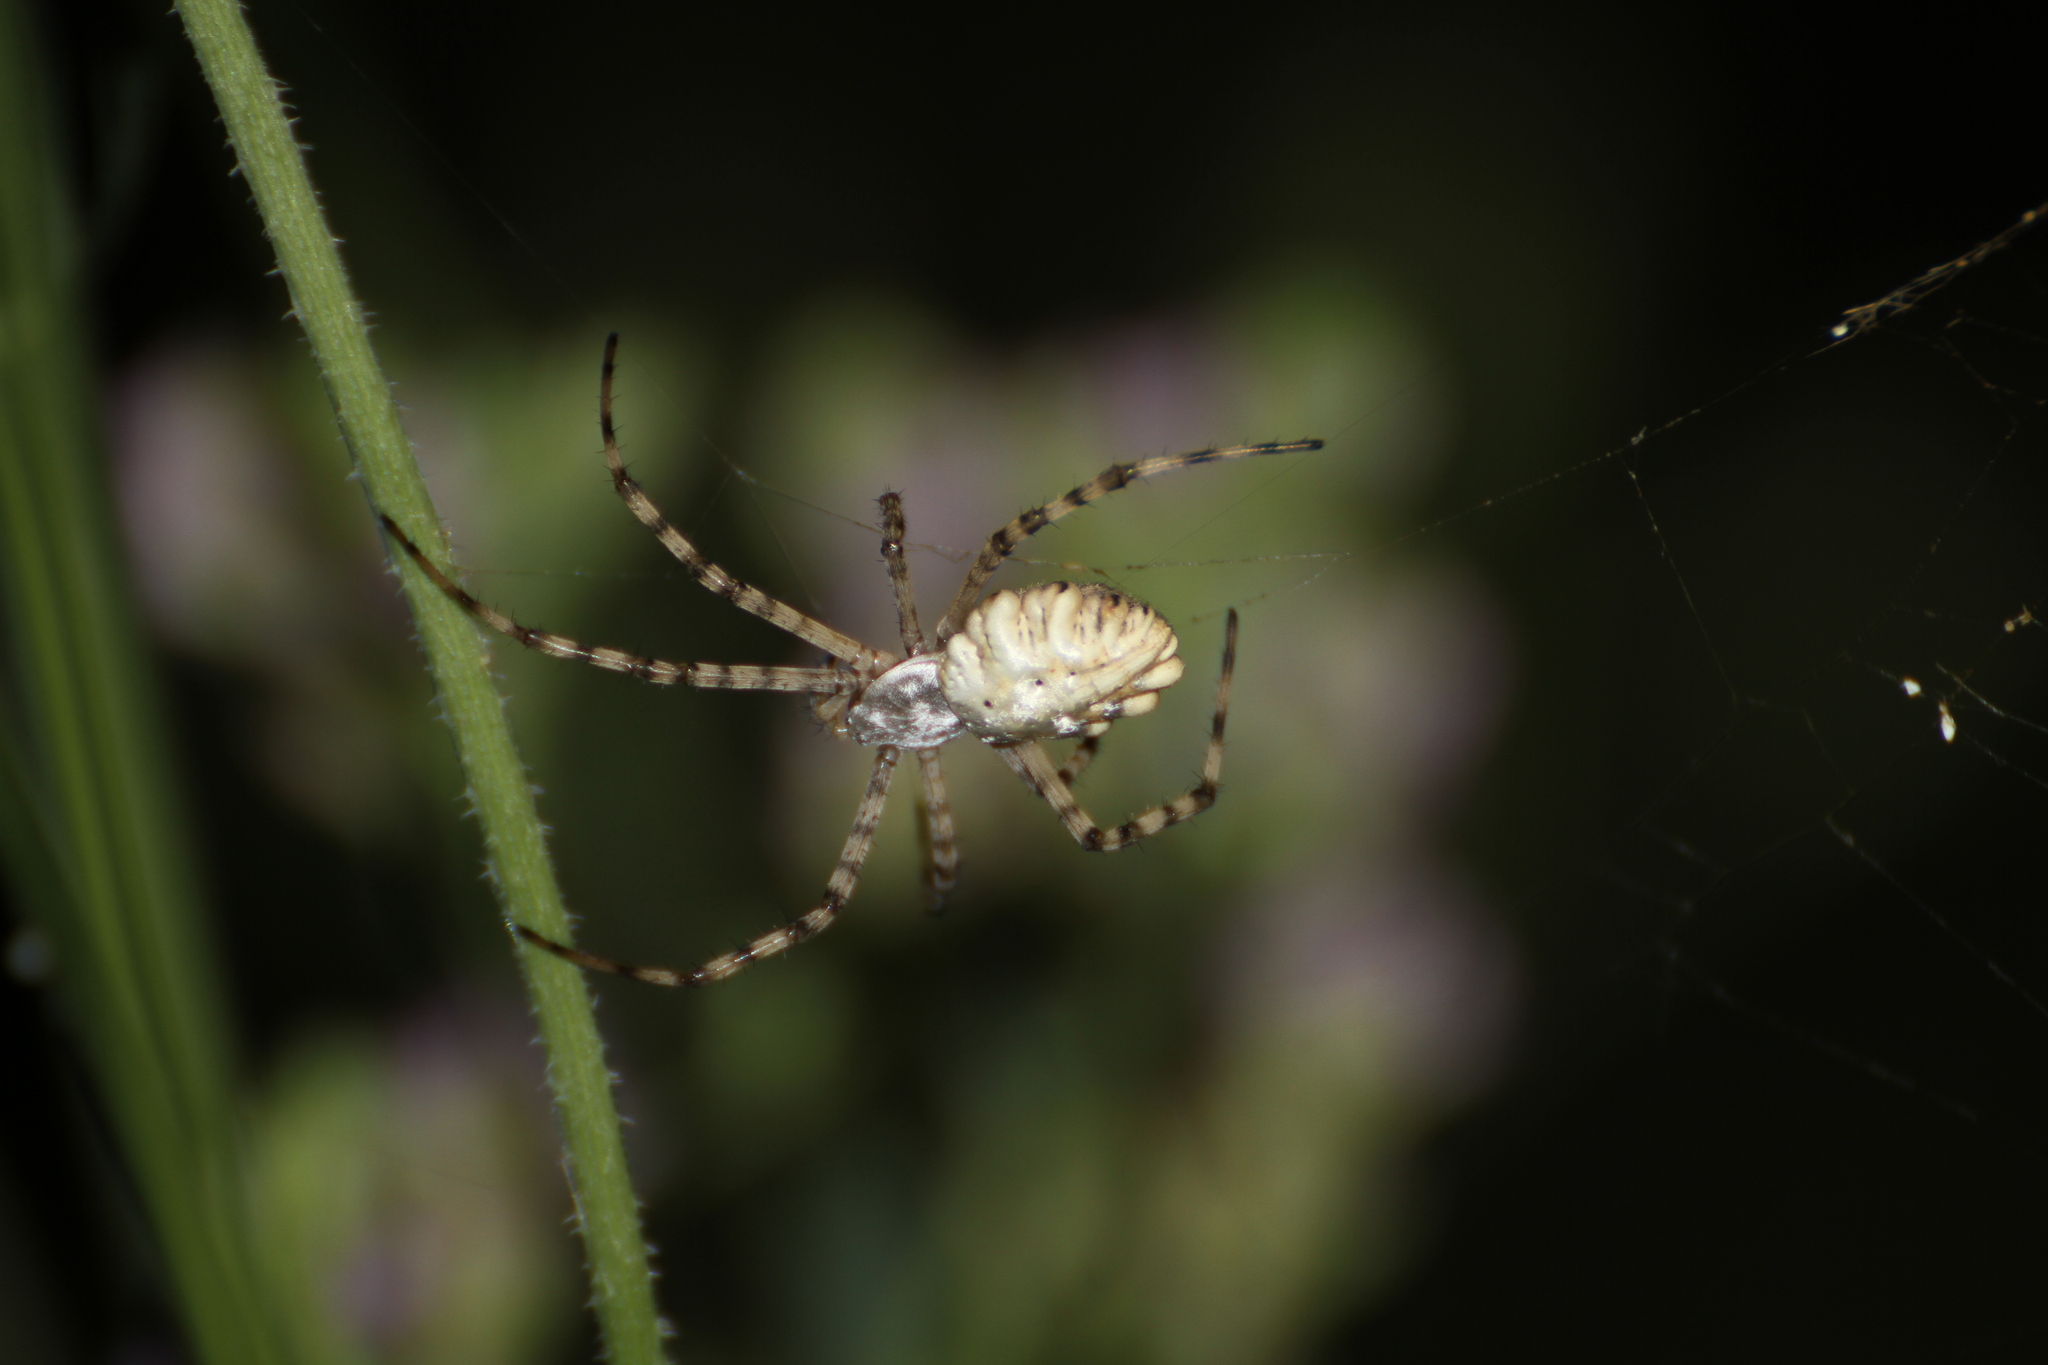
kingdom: Animalia
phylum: Arthropoda
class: Arachnida
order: Araneae
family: Araneidae
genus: Argiope
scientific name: Argiope lobata
